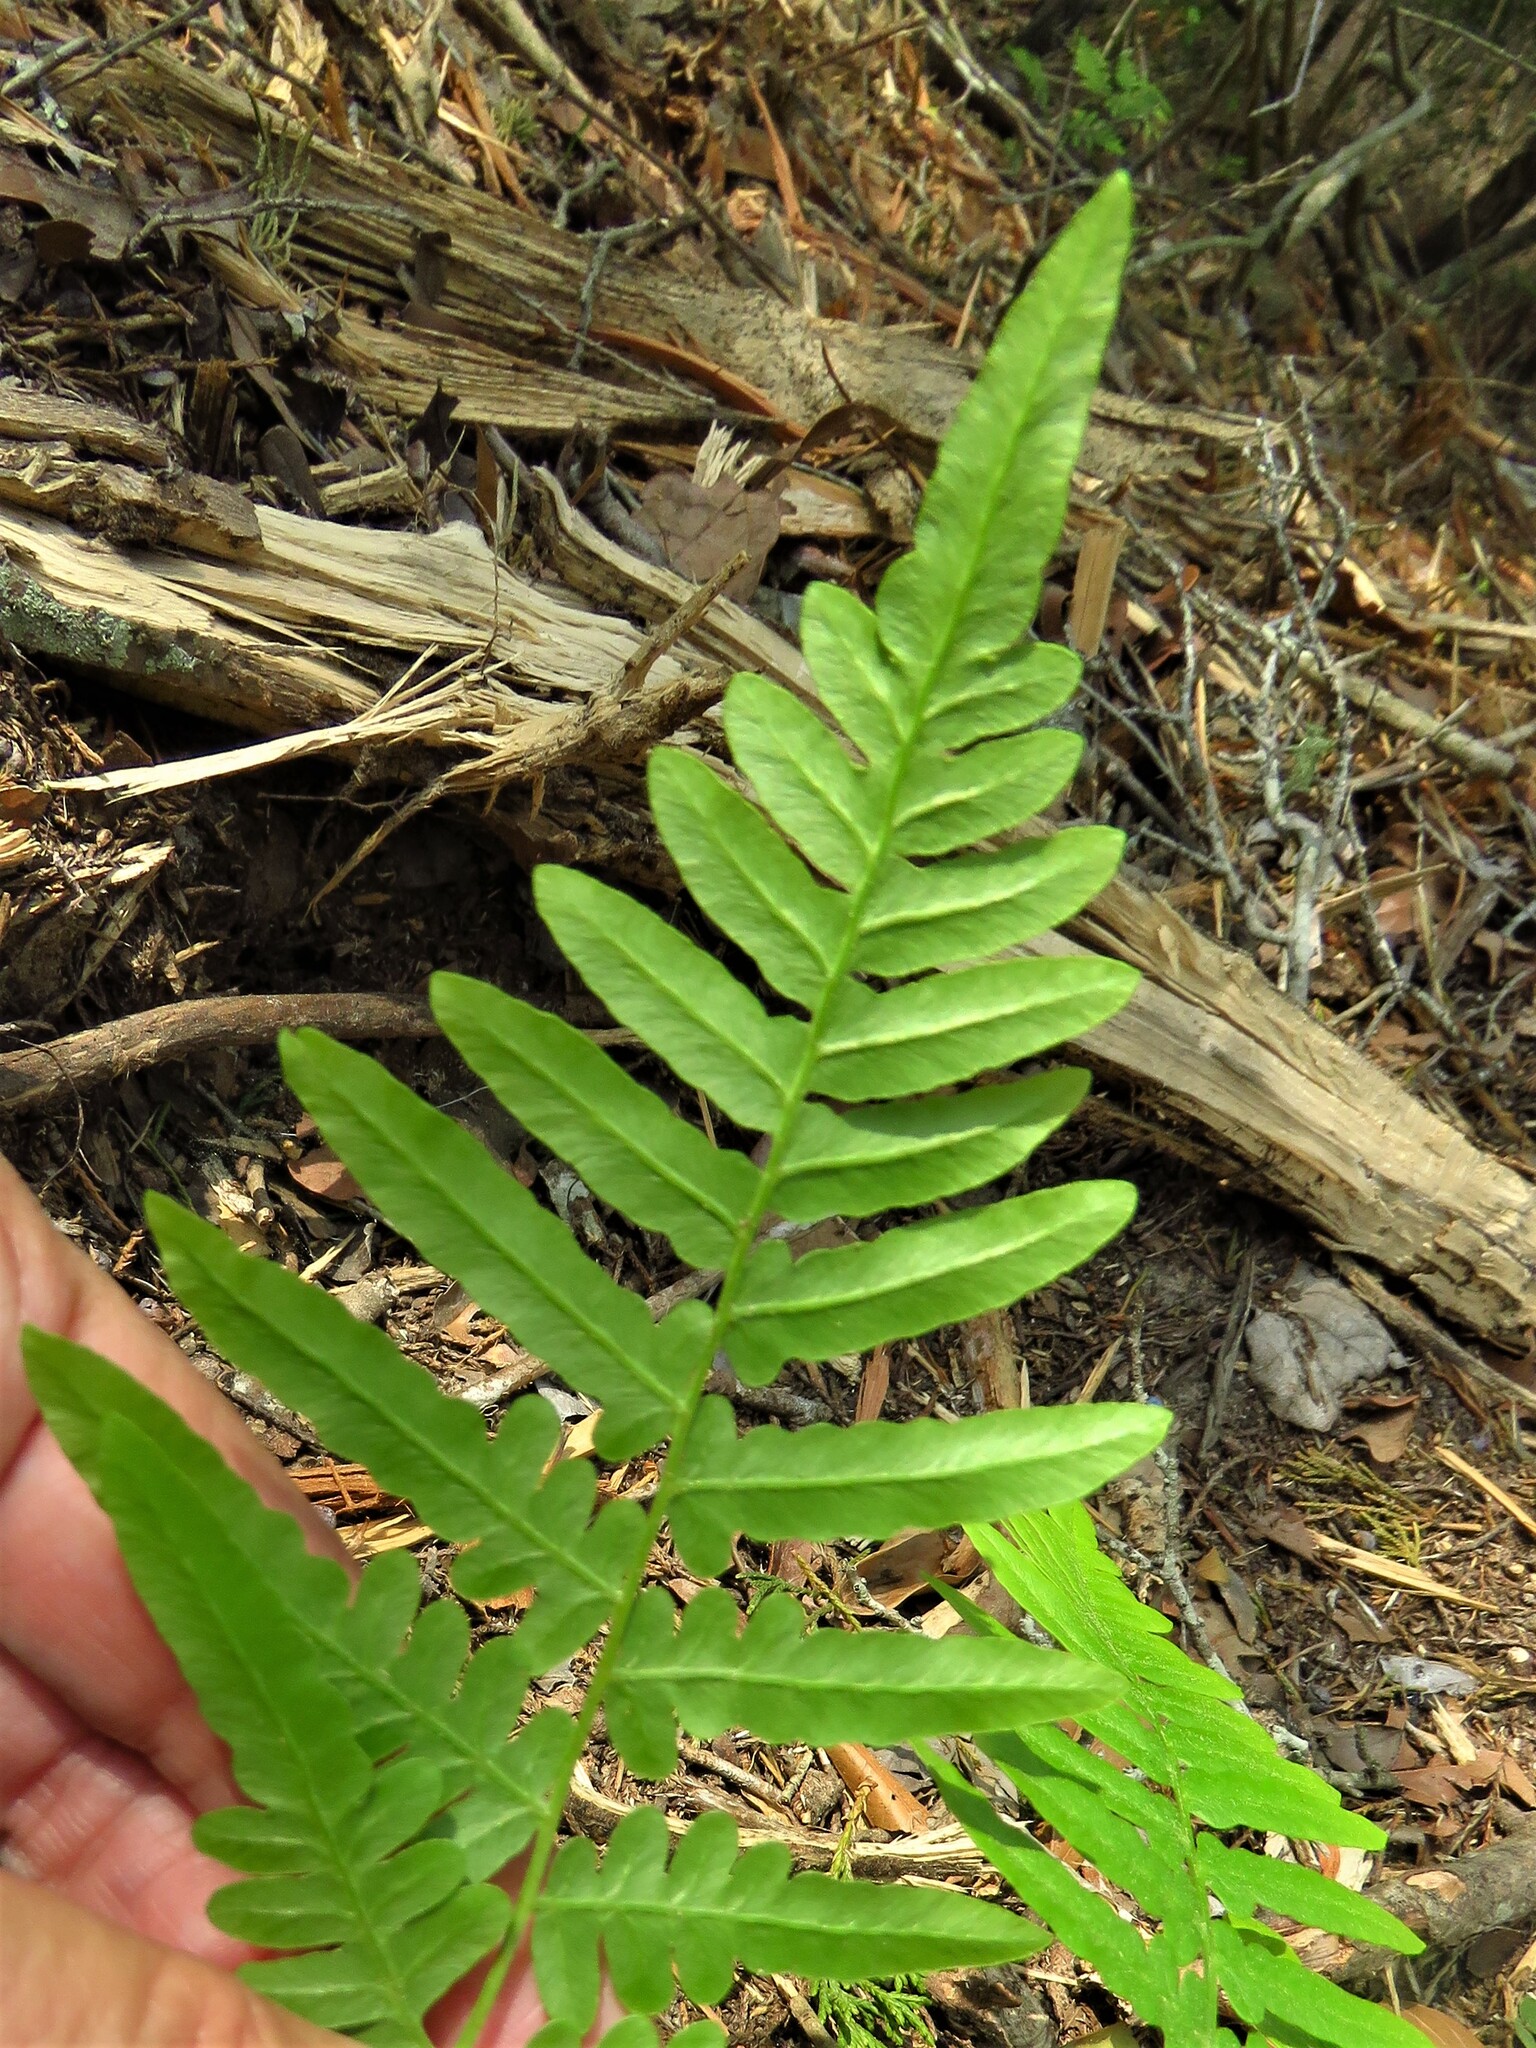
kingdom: Plantae
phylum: Tracheophyta
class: Polypodiopsida
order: Polypodiales
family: Dennstaedtiaceae
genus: Pteridium
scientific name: Pteridium aquilinum
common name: Bracken
